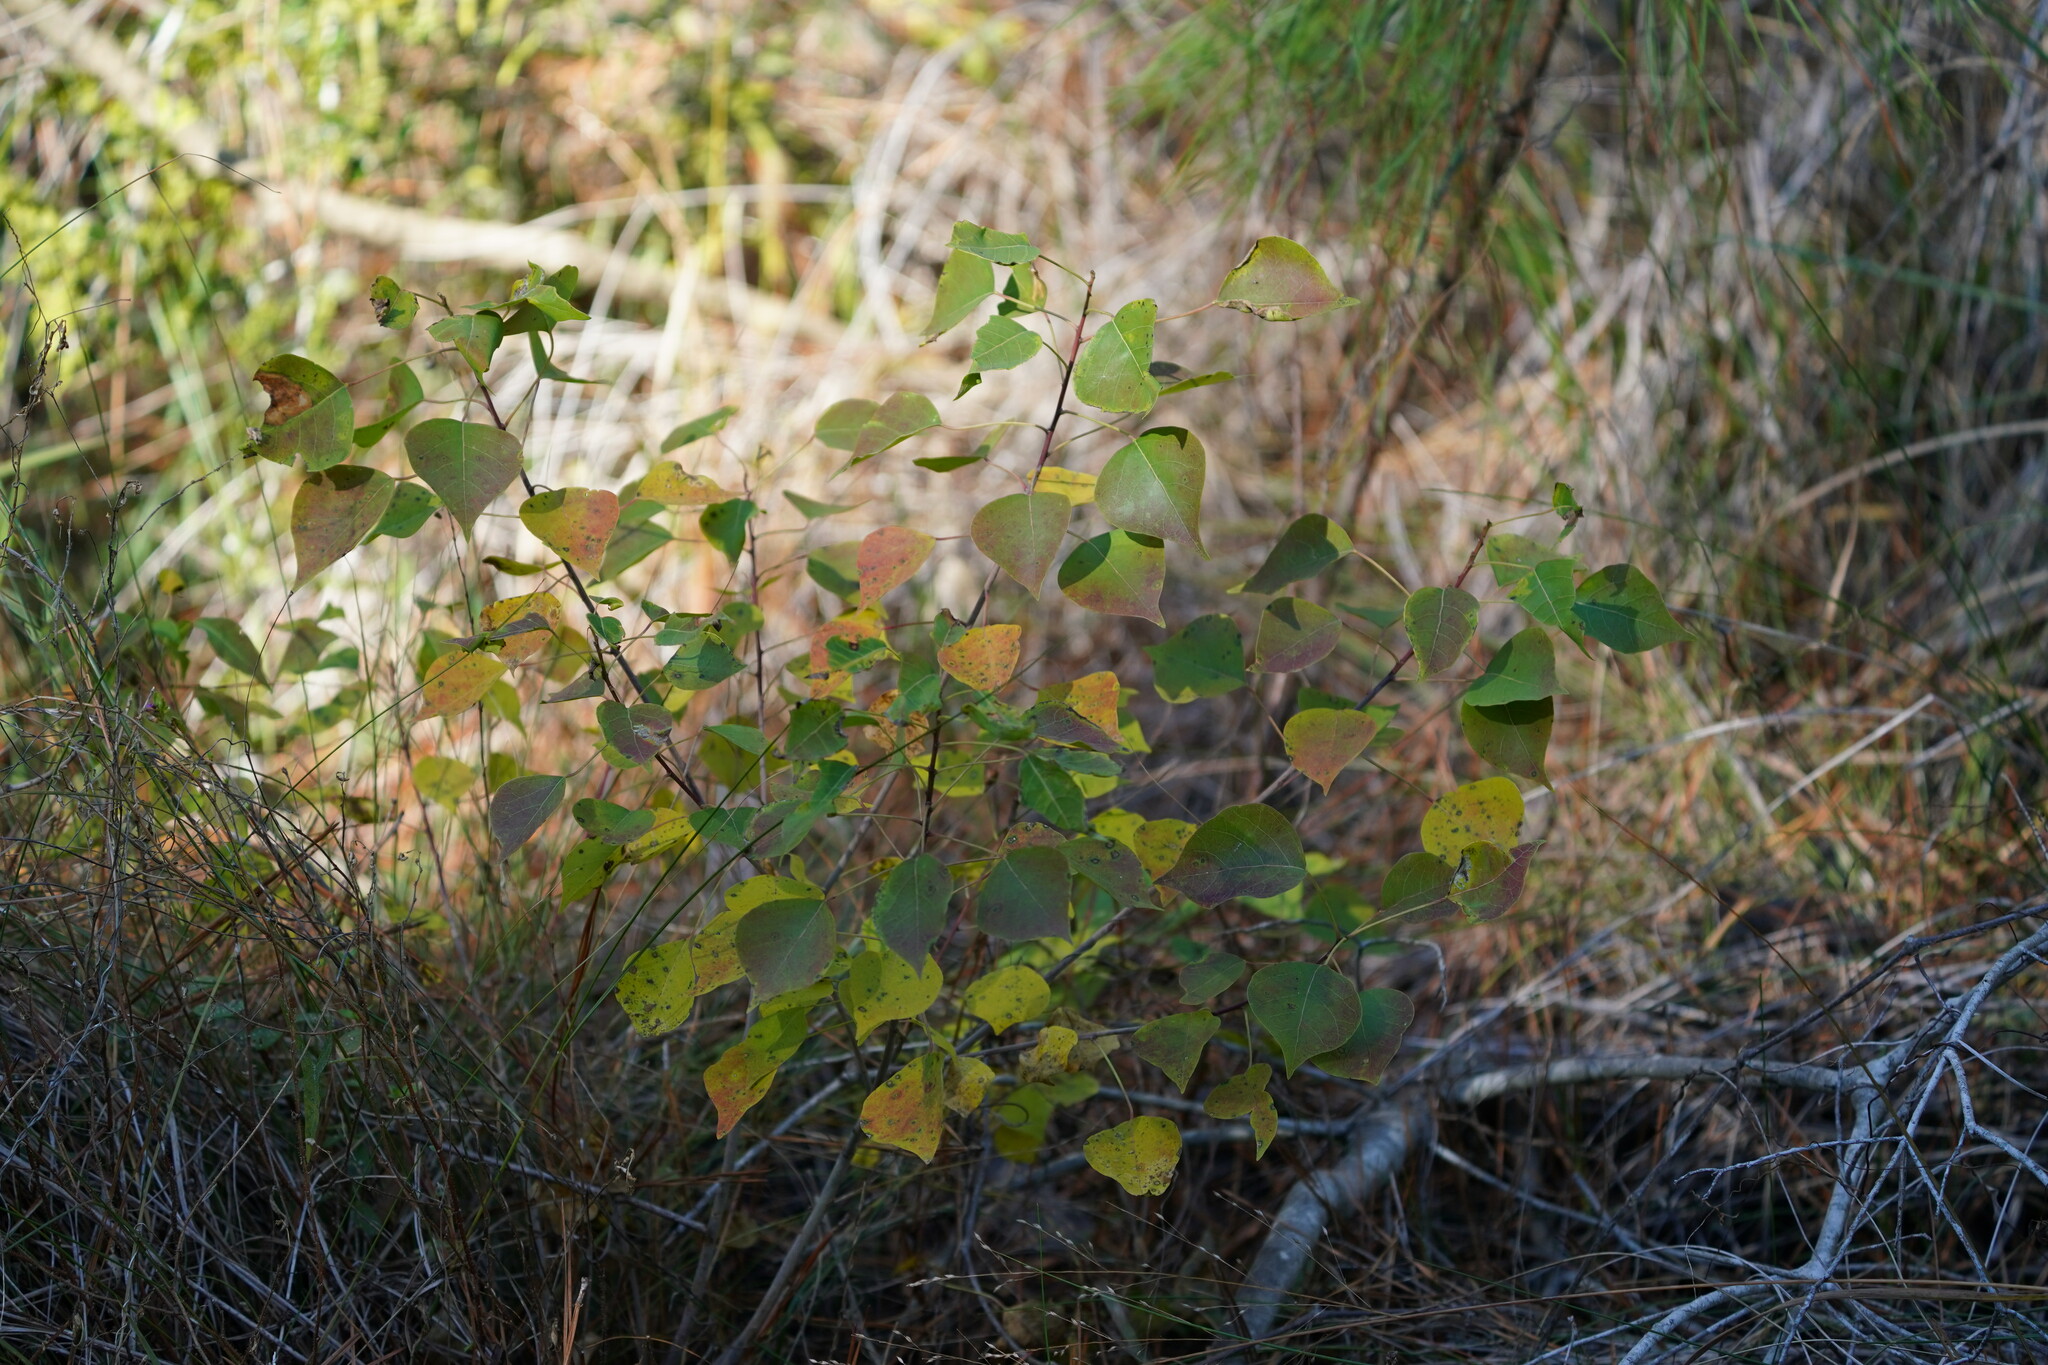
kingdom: Plantae
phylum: Tracheophyta
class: Magnoliopsida
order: Malpighiales
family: Euphorbiaceae
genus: Triadica
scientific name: Triadica sebifera
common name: Chinese tallow
